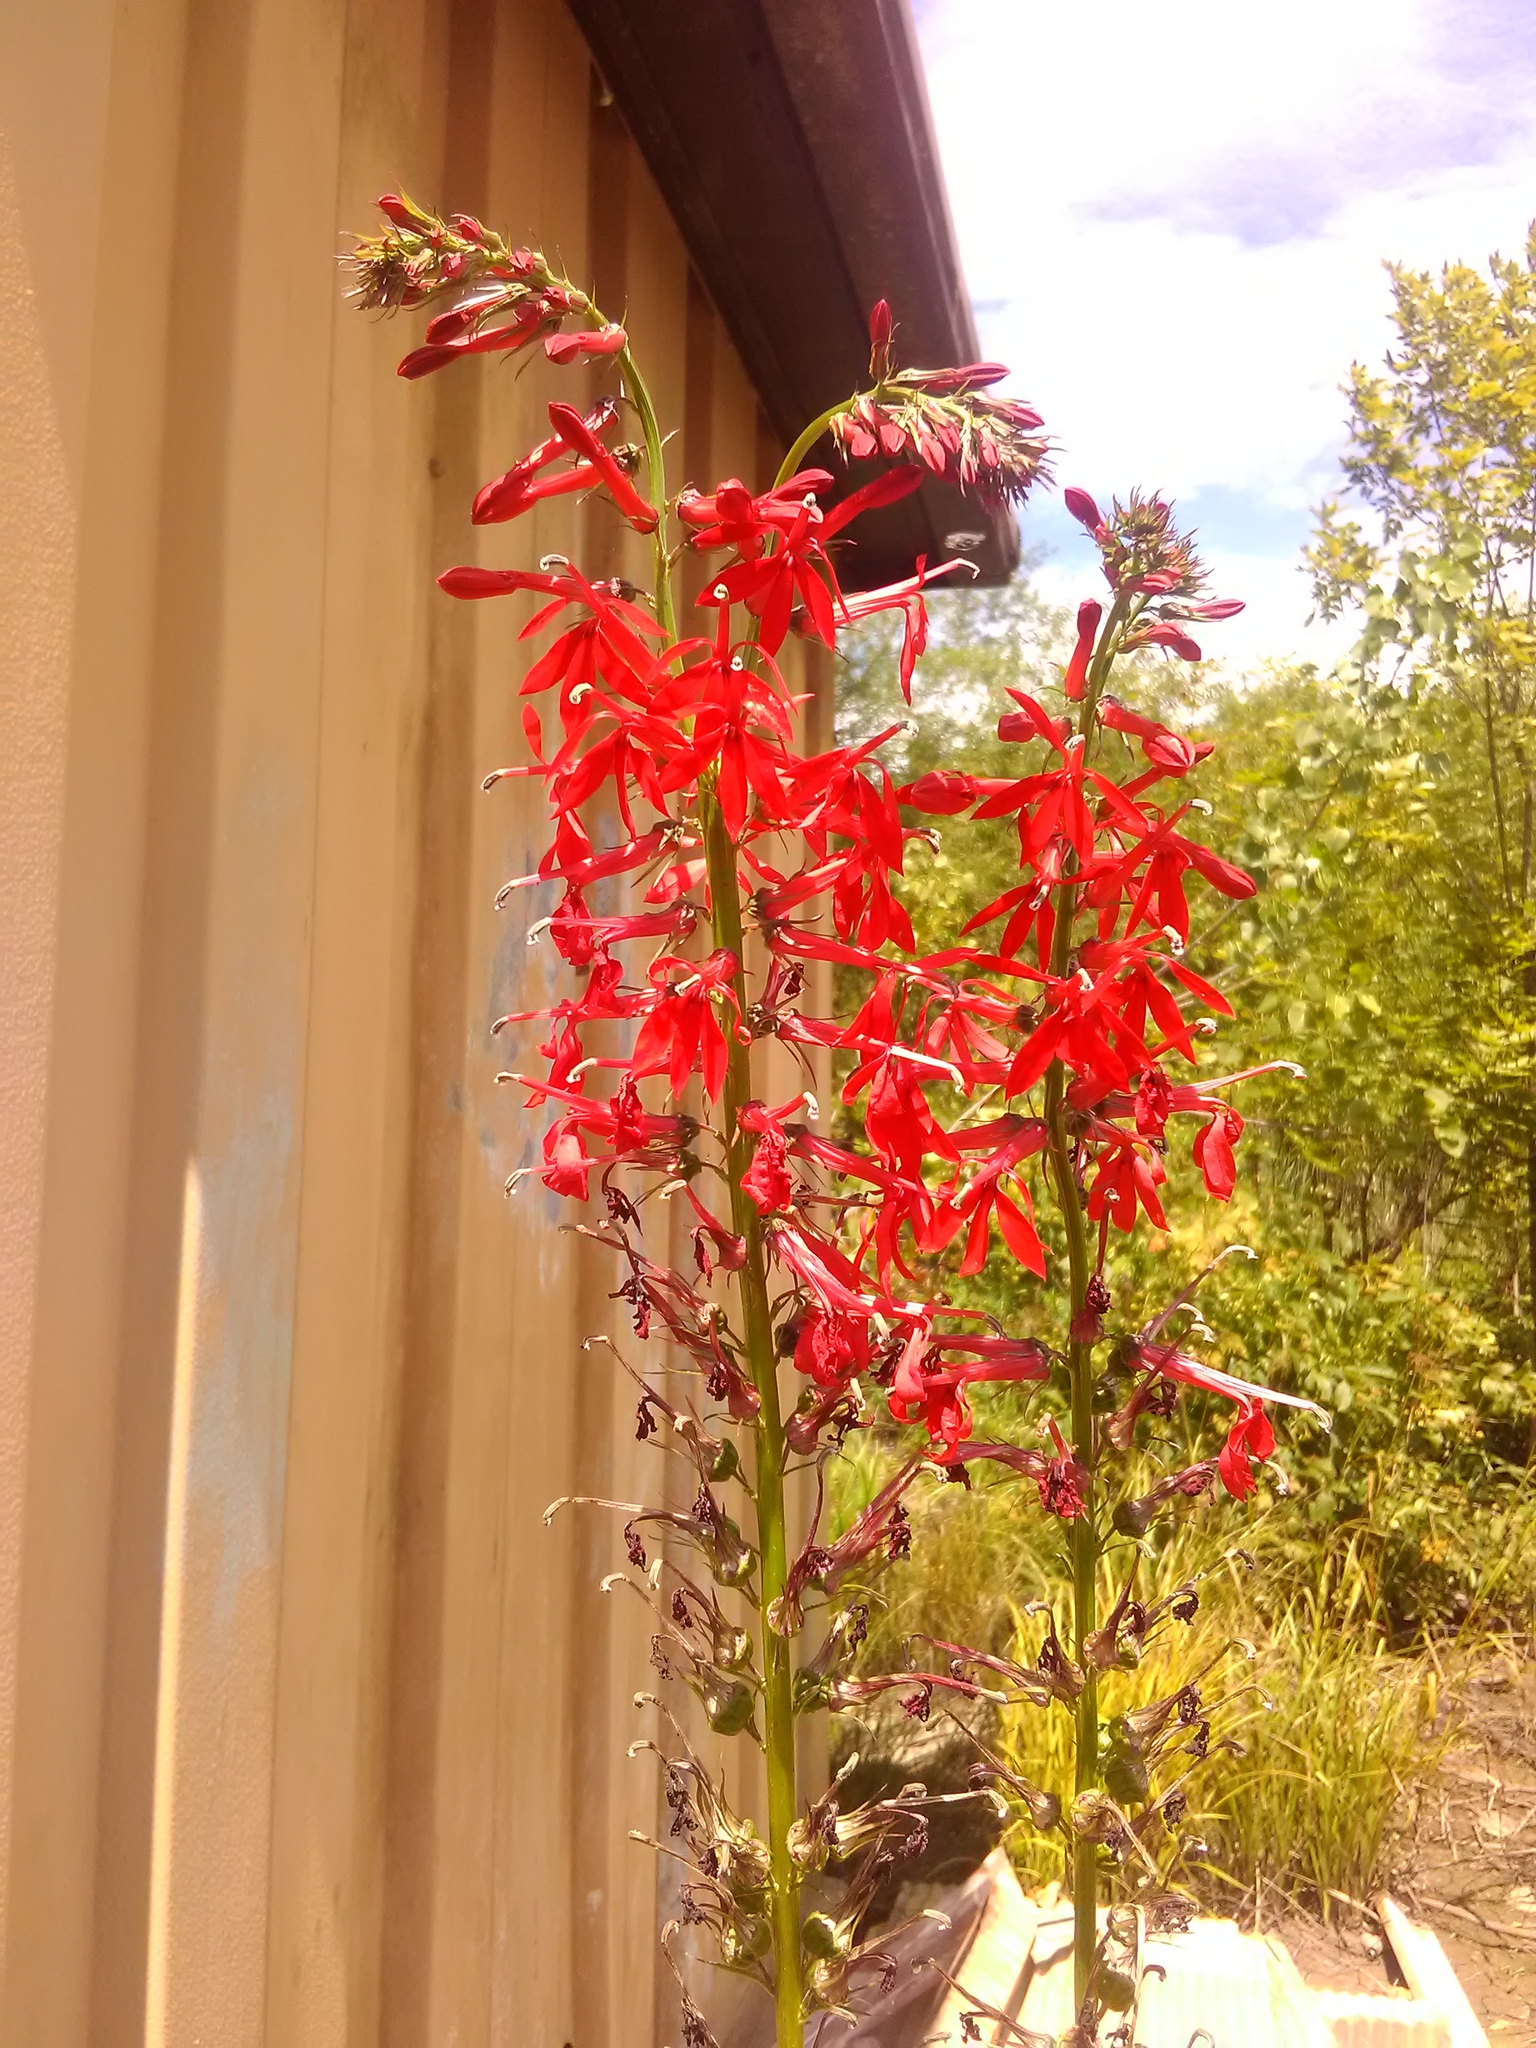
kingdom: Plantae
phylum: Tracheophyta
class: Magnoliopsida
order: Asterales
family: Campanulaceae
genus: Lobelia
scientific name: Lobelia cardinalis
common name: Cardinal flower
